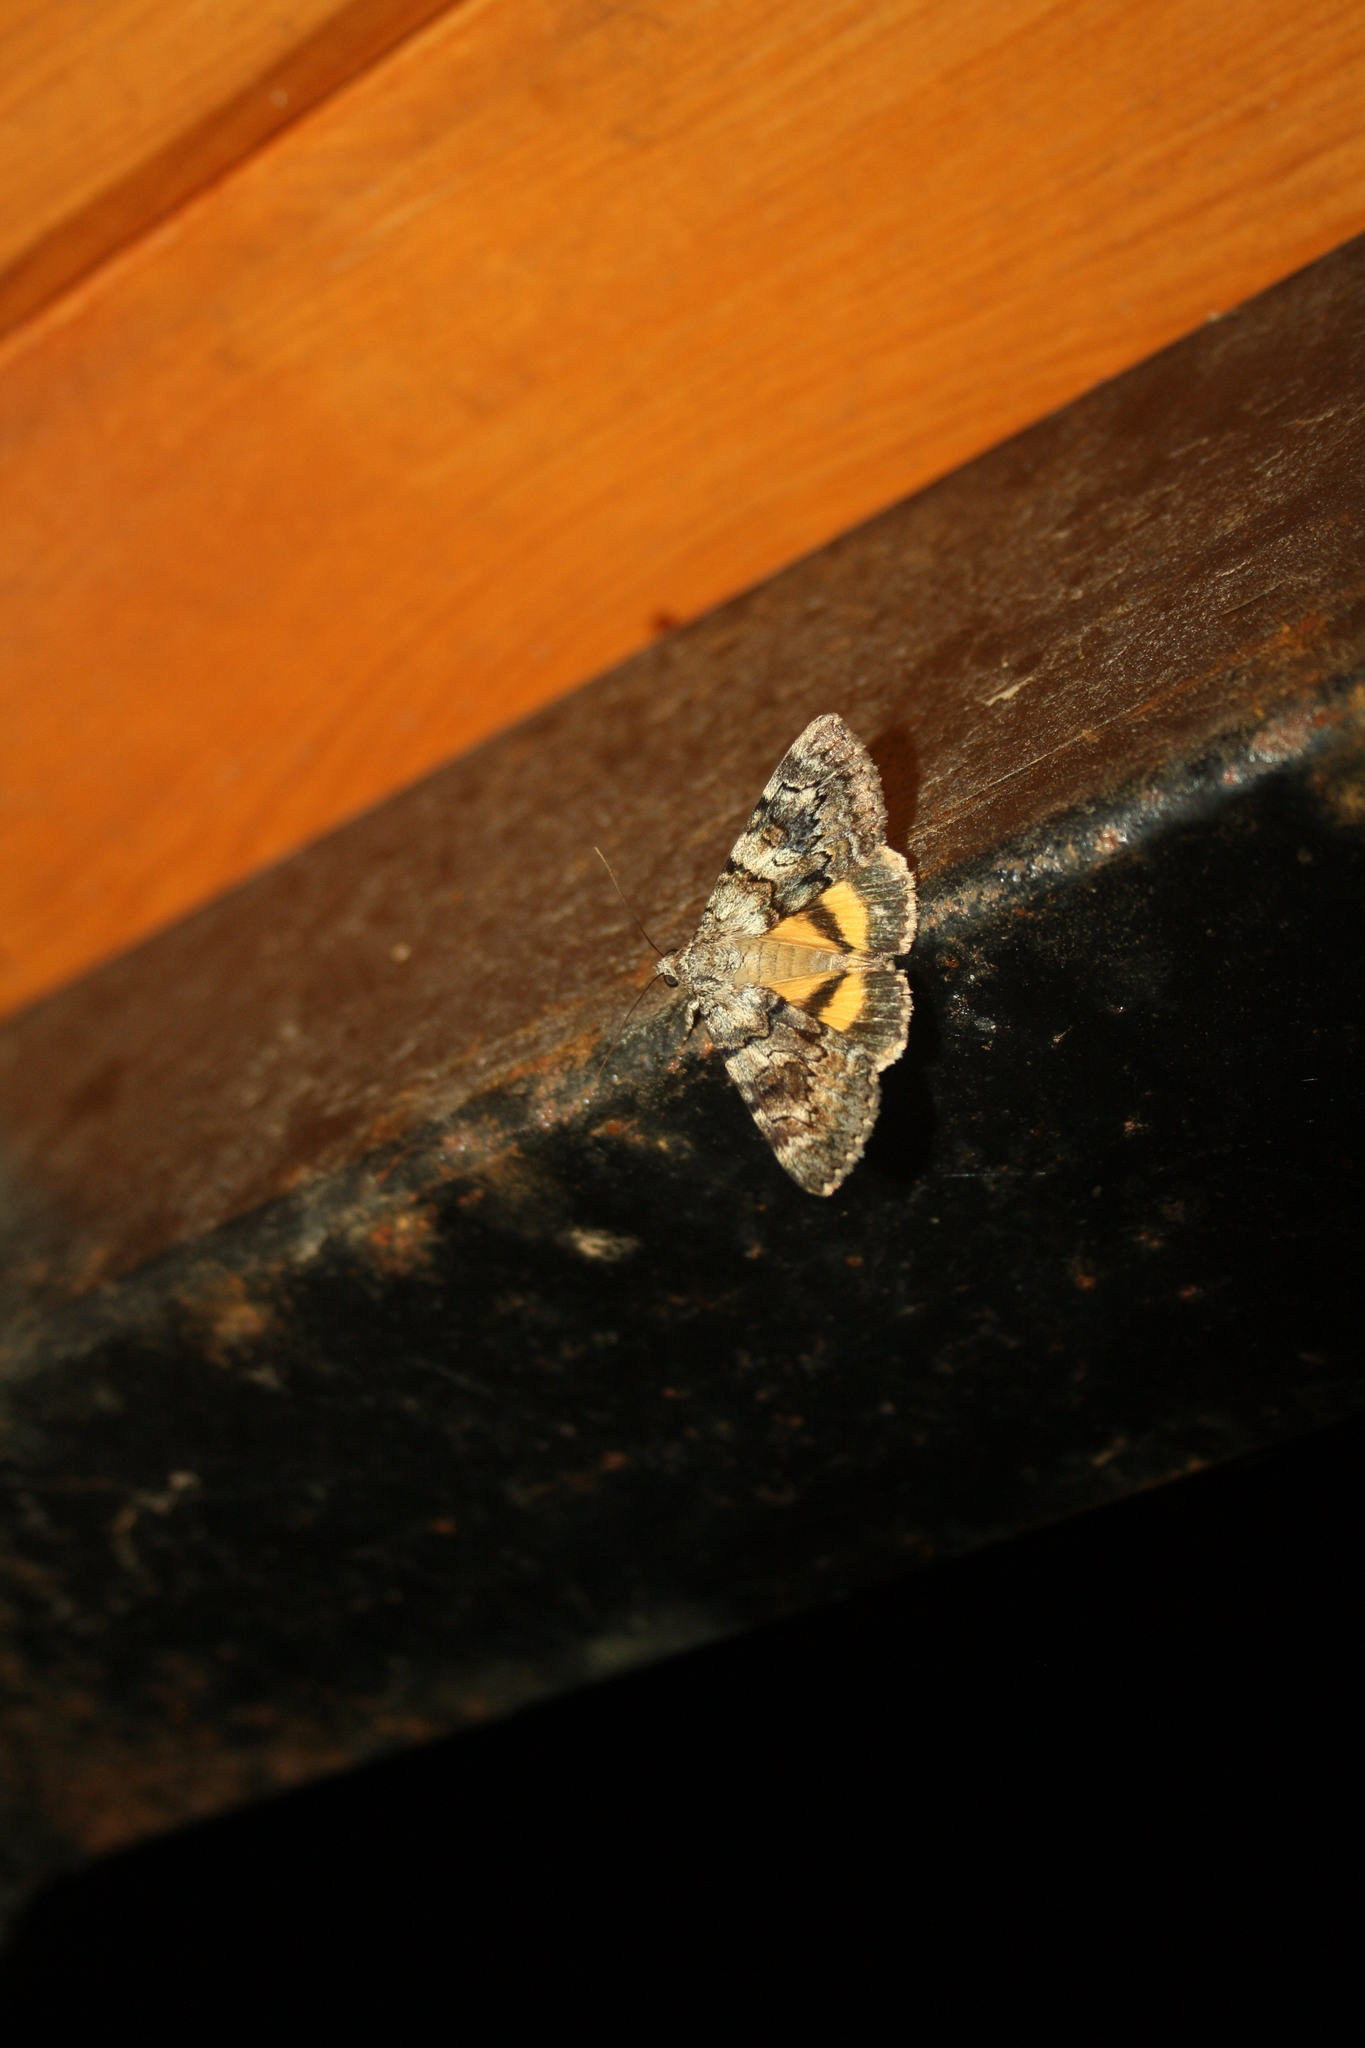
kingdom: Animalia
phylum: Arthropoda
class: Insecta
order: Lepidoptera
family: Erebidae
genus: Catocala
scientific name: Catocala nymphagoga
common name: Oak yellow underwing
